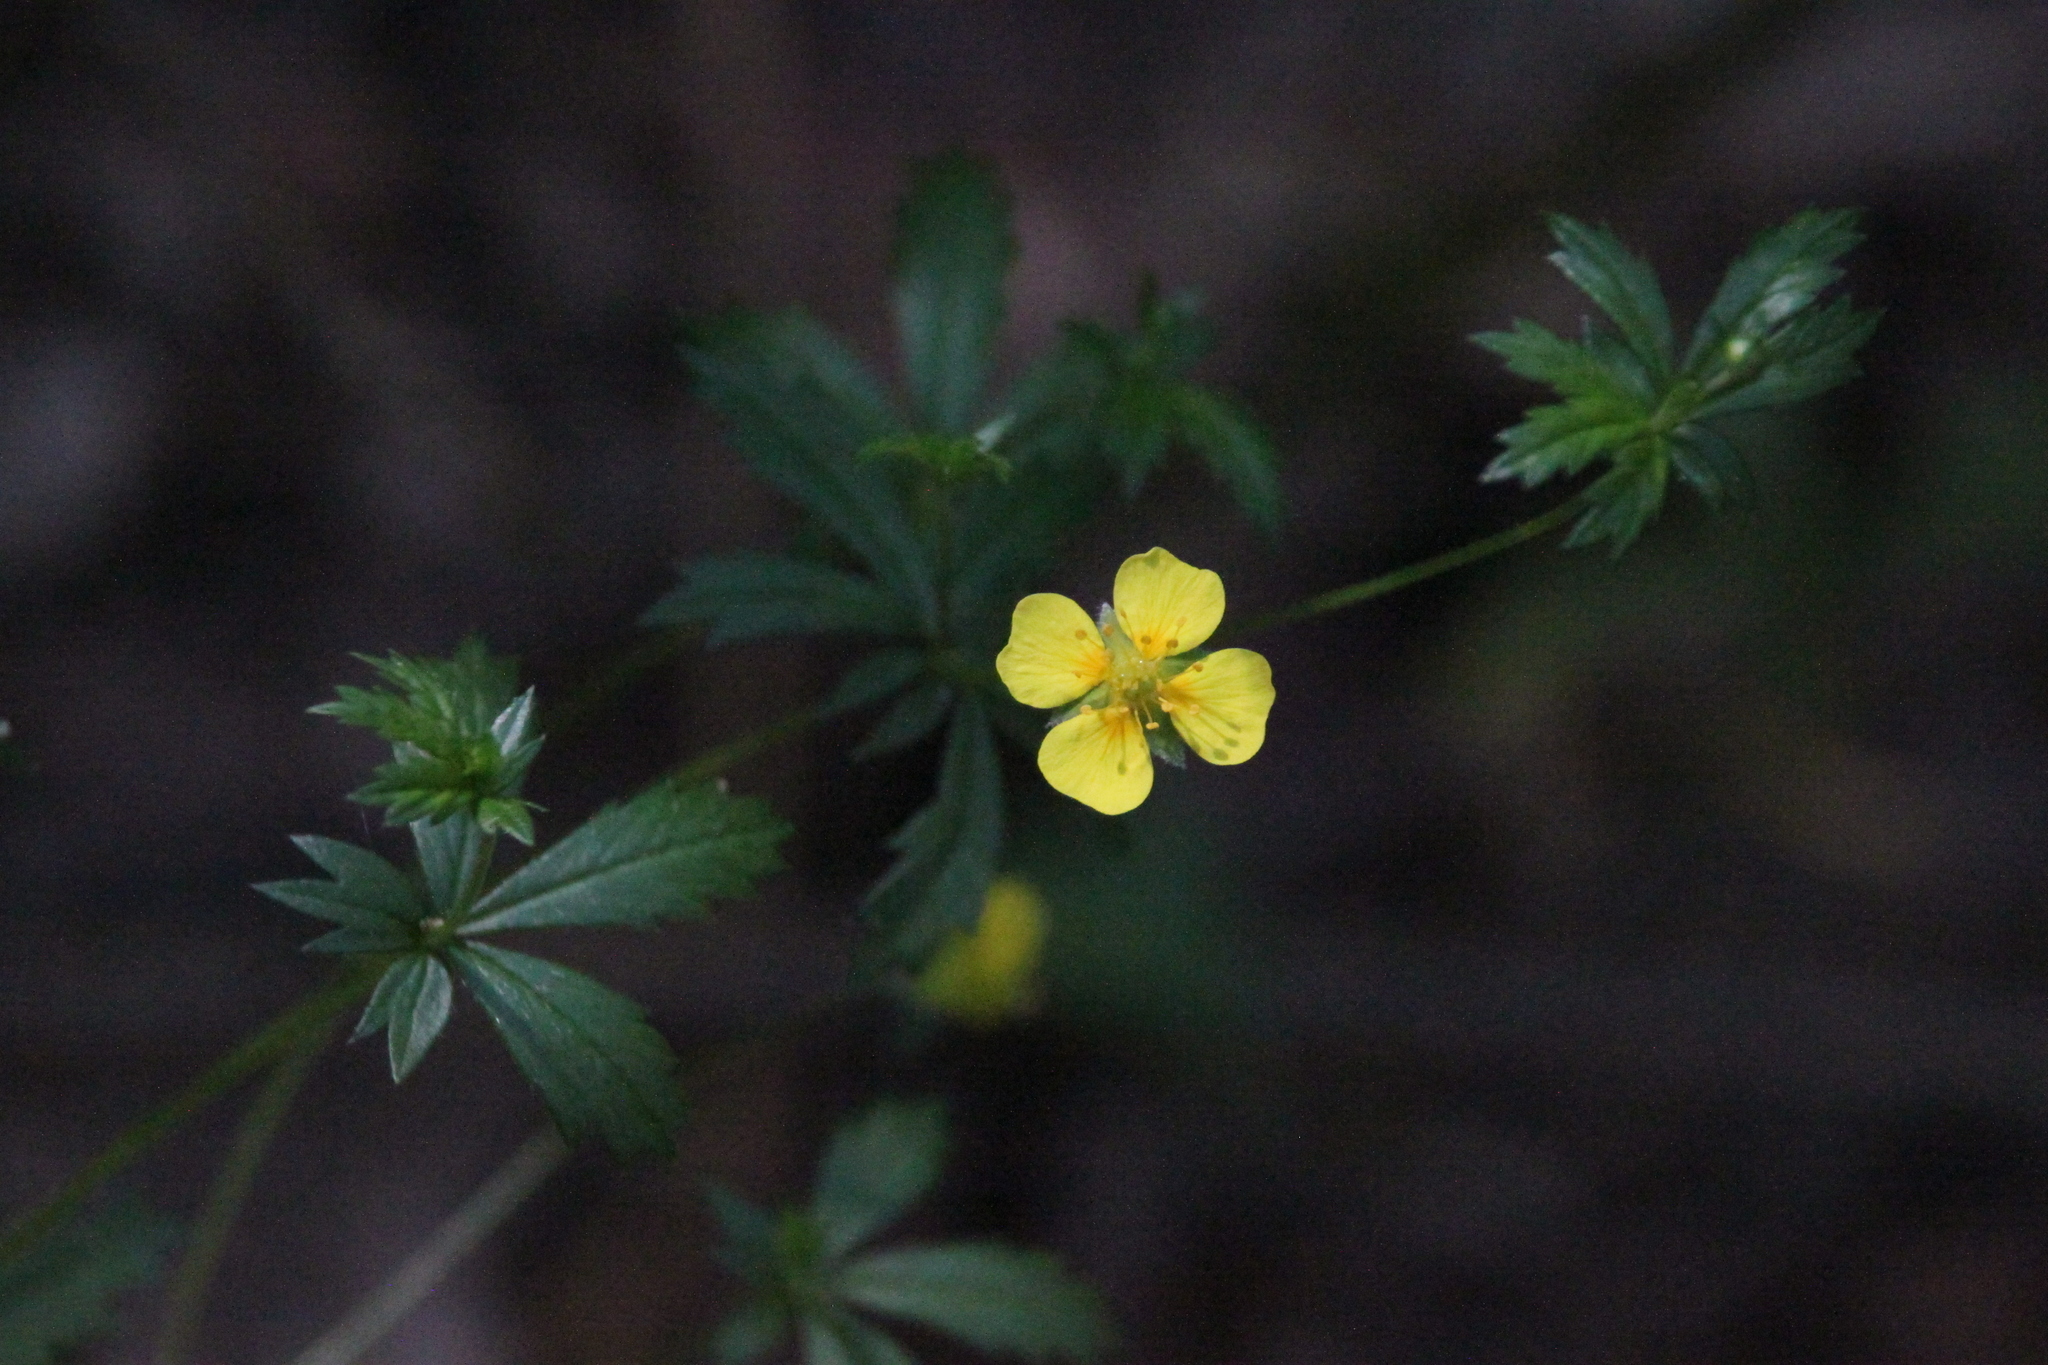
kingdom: Plantae
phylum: Tracheophyta
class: Magnoliopsida
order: Rosales
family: Rosaceae
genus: Potentilla
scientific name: Potentilla erecta
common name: Tormentil
